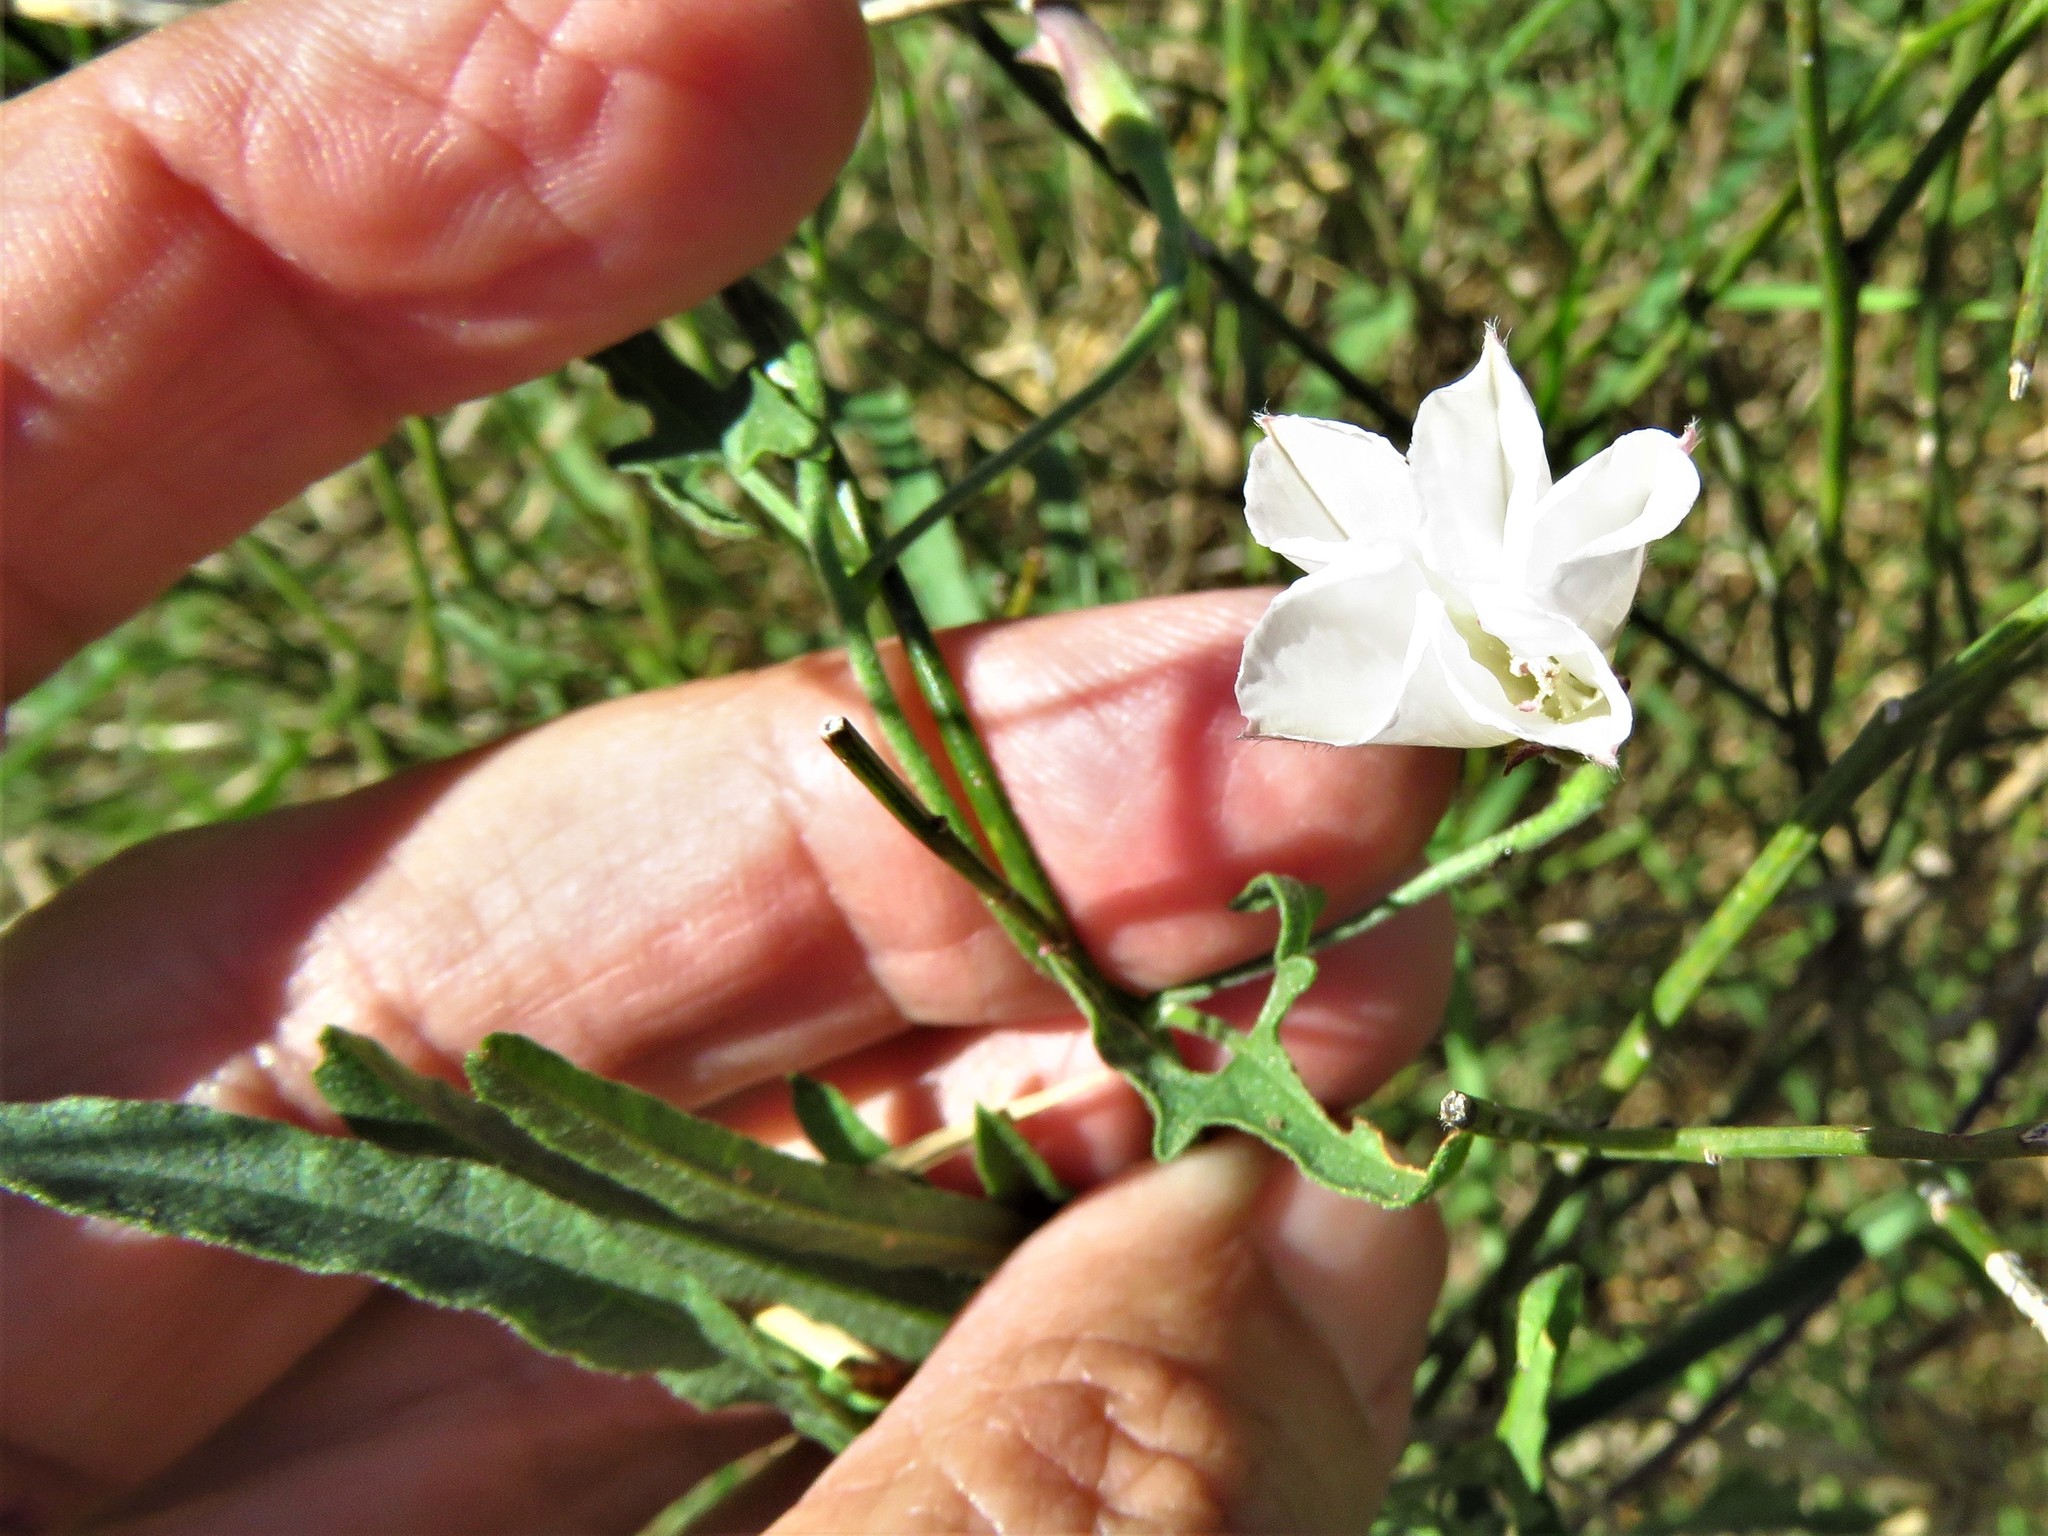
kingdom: Plantae
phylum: Tracheophyta
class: Magnoliopsida
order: Solanales
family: Convolvulaceae
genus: Convolvulus
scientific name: Convolvulus equitans
